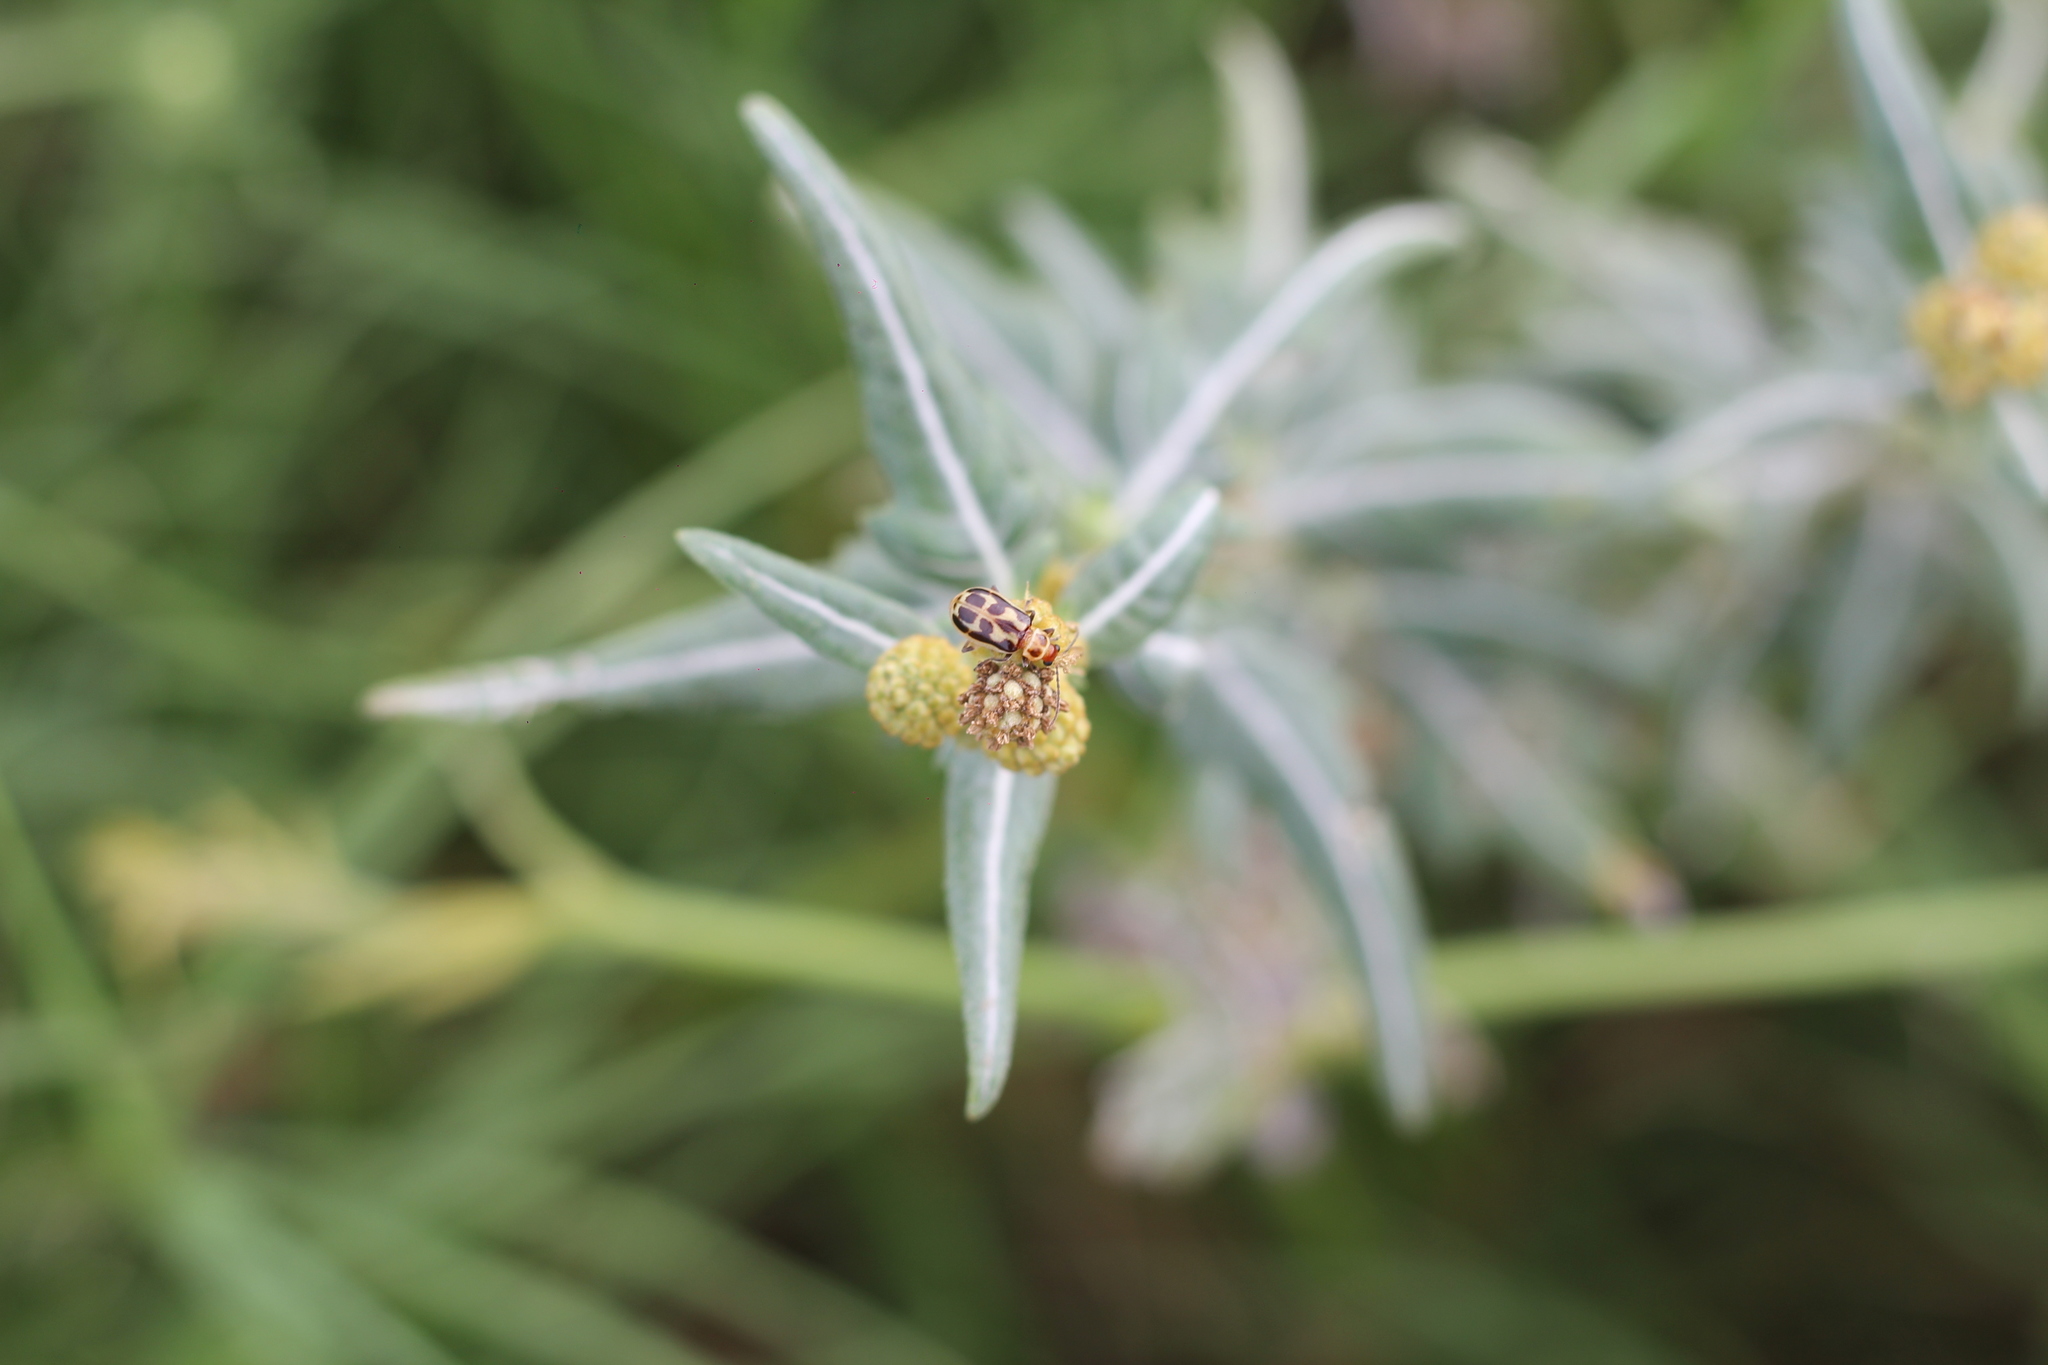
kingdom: Animalia
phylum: Arthropoda
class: Insecta
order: Coleoptera
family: Chrysomelidae
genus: Paranapiacaba
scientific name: Paranapiacaba significata
